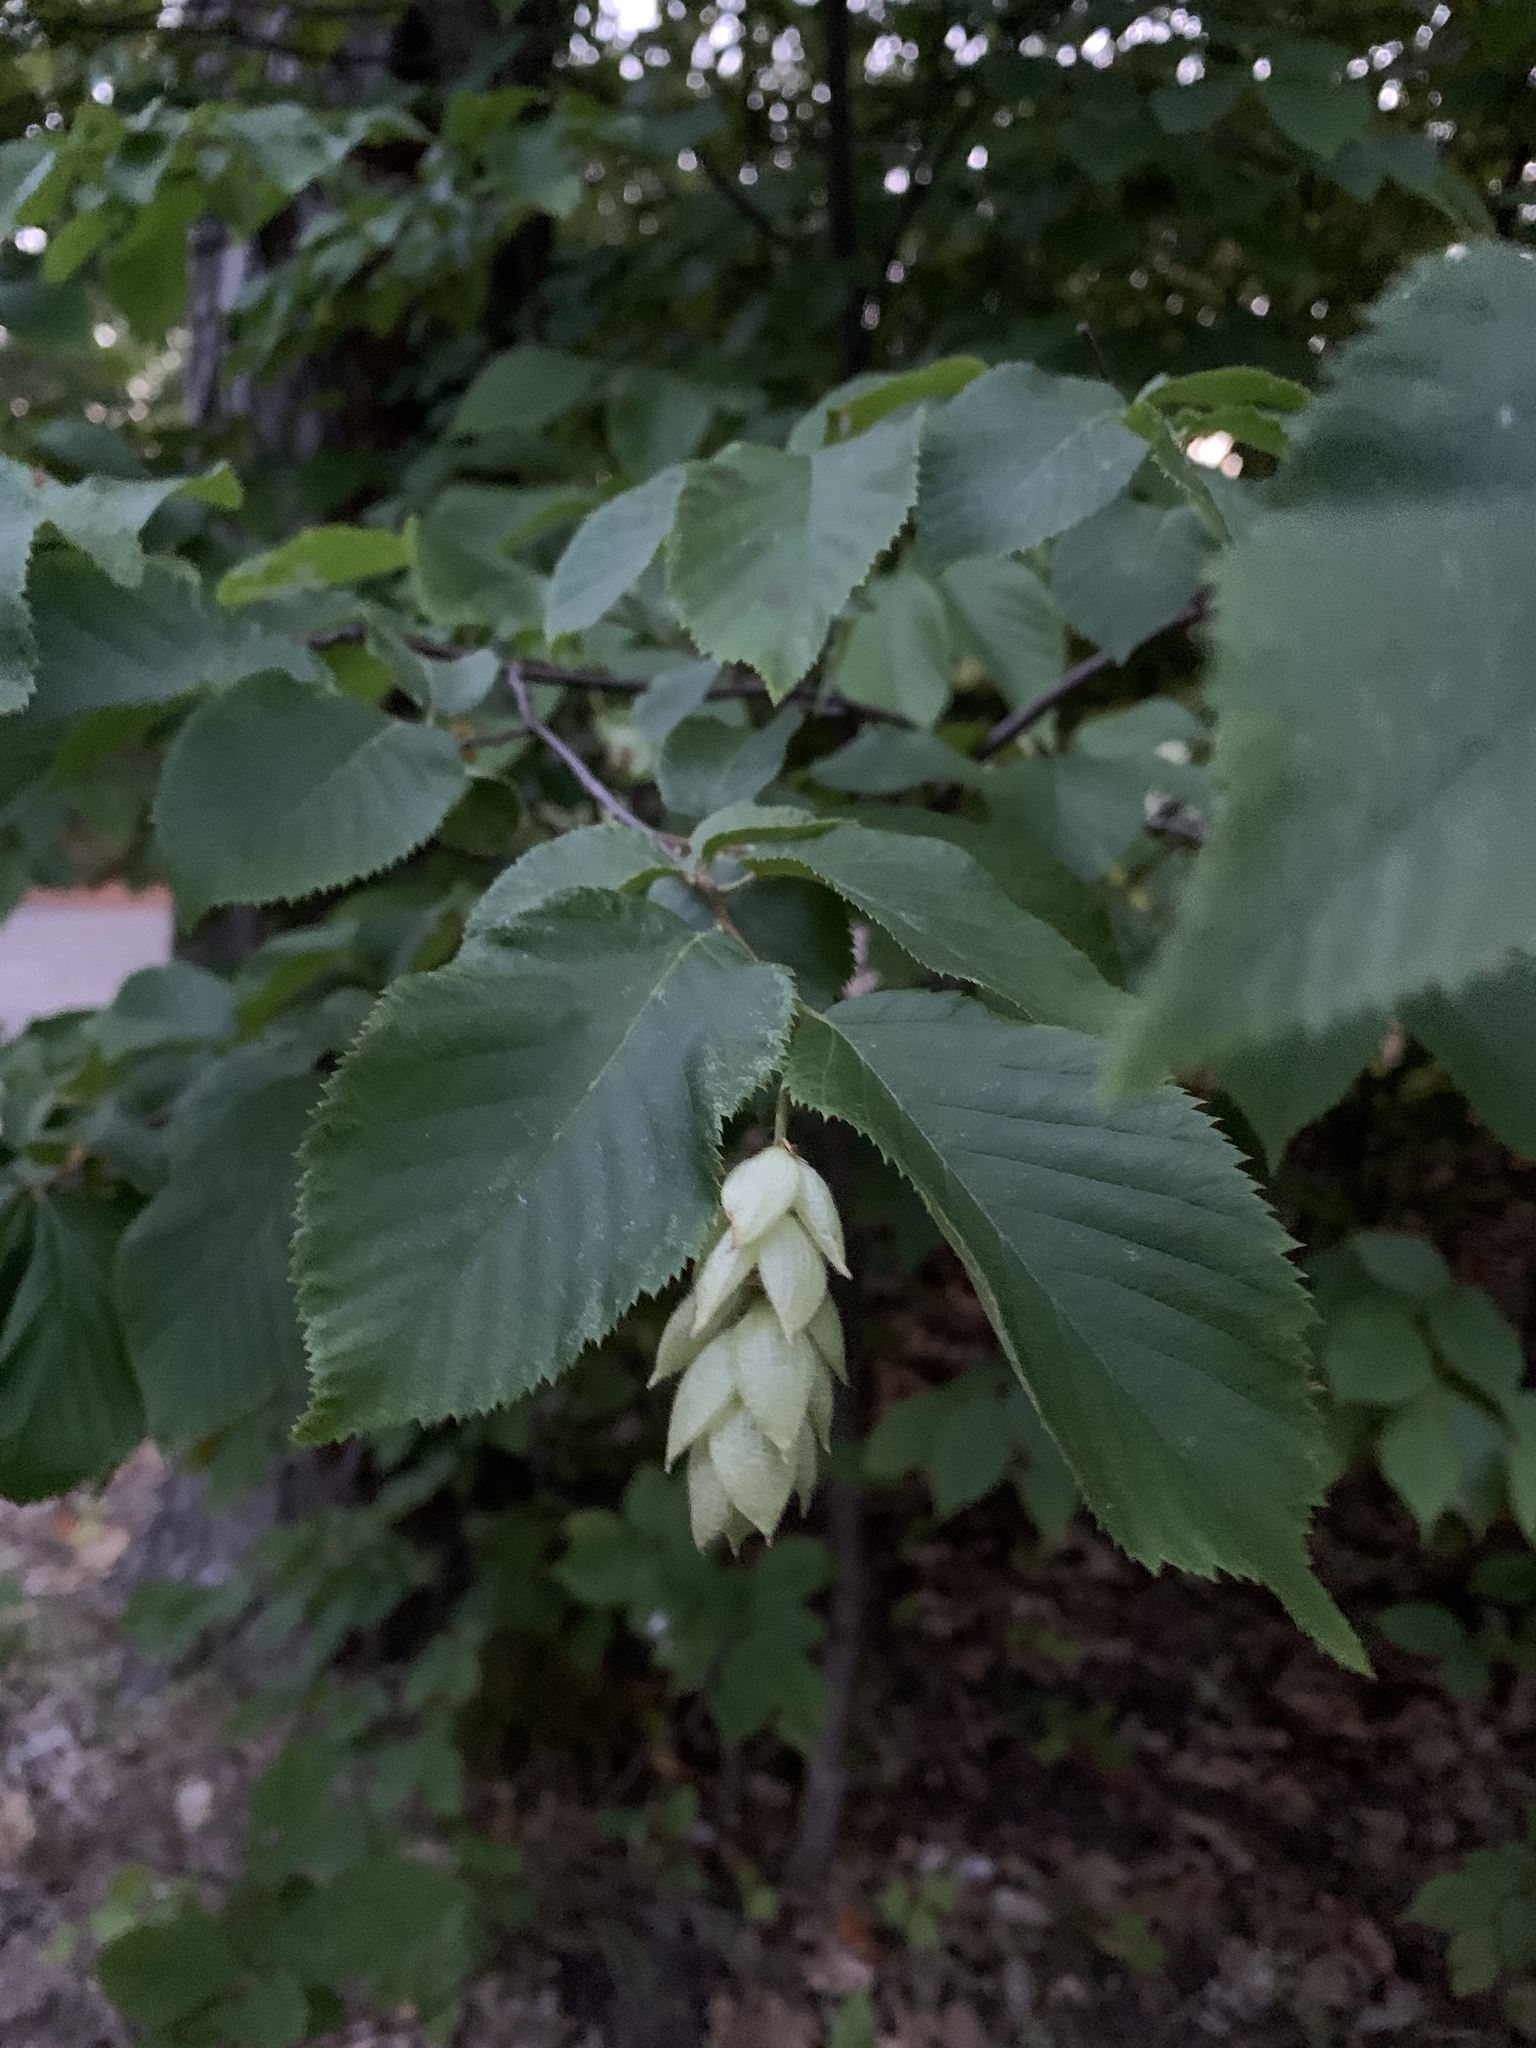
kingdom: Plantae
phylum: Tracheophyta
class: Magnoliopsida
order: Fagales
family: Betulaceae
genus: Ostrya
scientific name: Ostrya virginiana
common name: Ironwood
